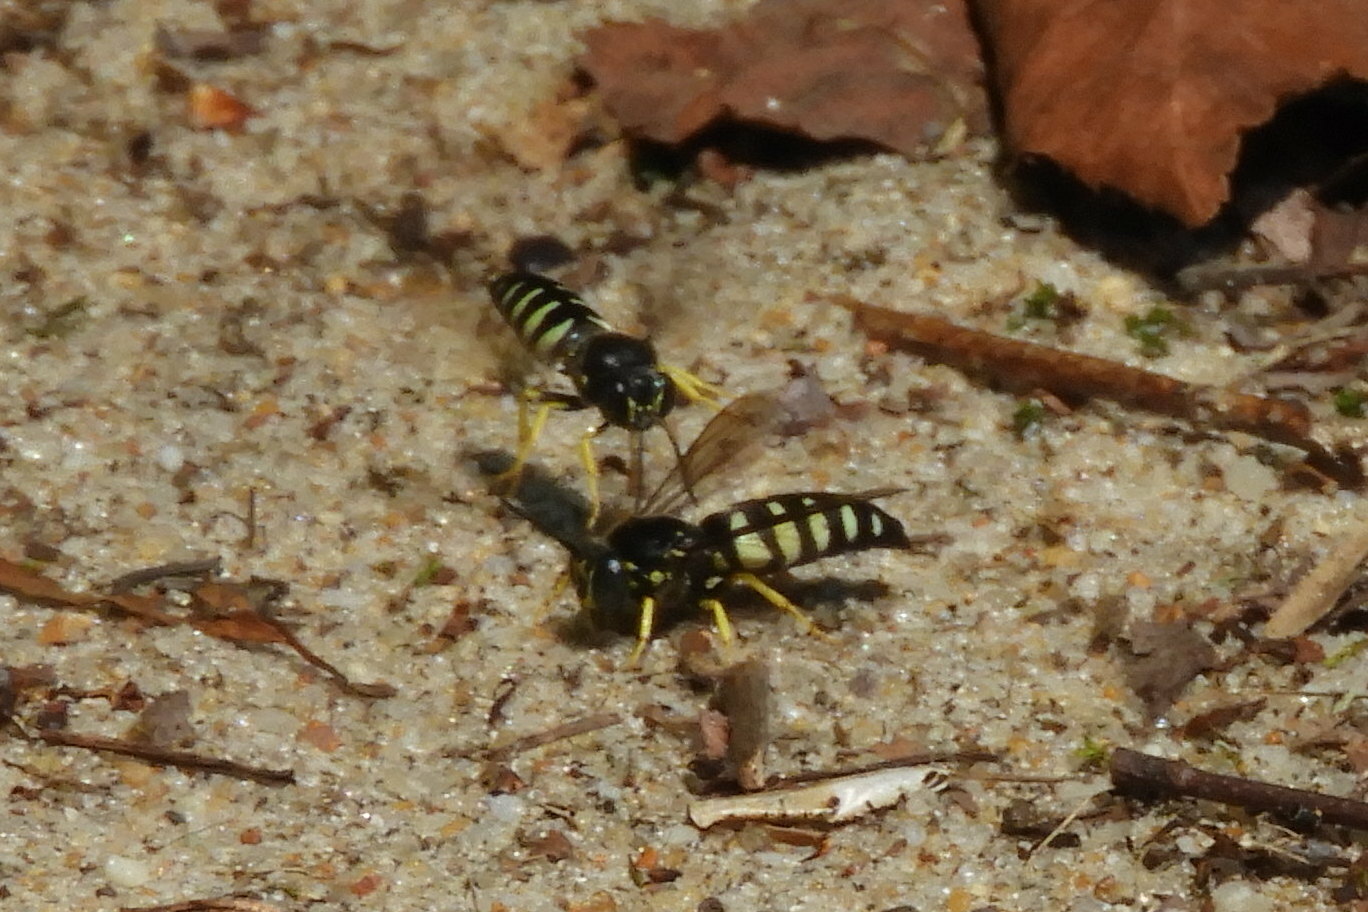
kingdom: Animalia
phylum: Arthropoda
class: Insecta
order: Hymenoptera
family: Crabronidae
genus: Bicyrtes
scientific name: Bicyrtes quadrifasciatus
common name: Four-banded stink bug hunter wasp
